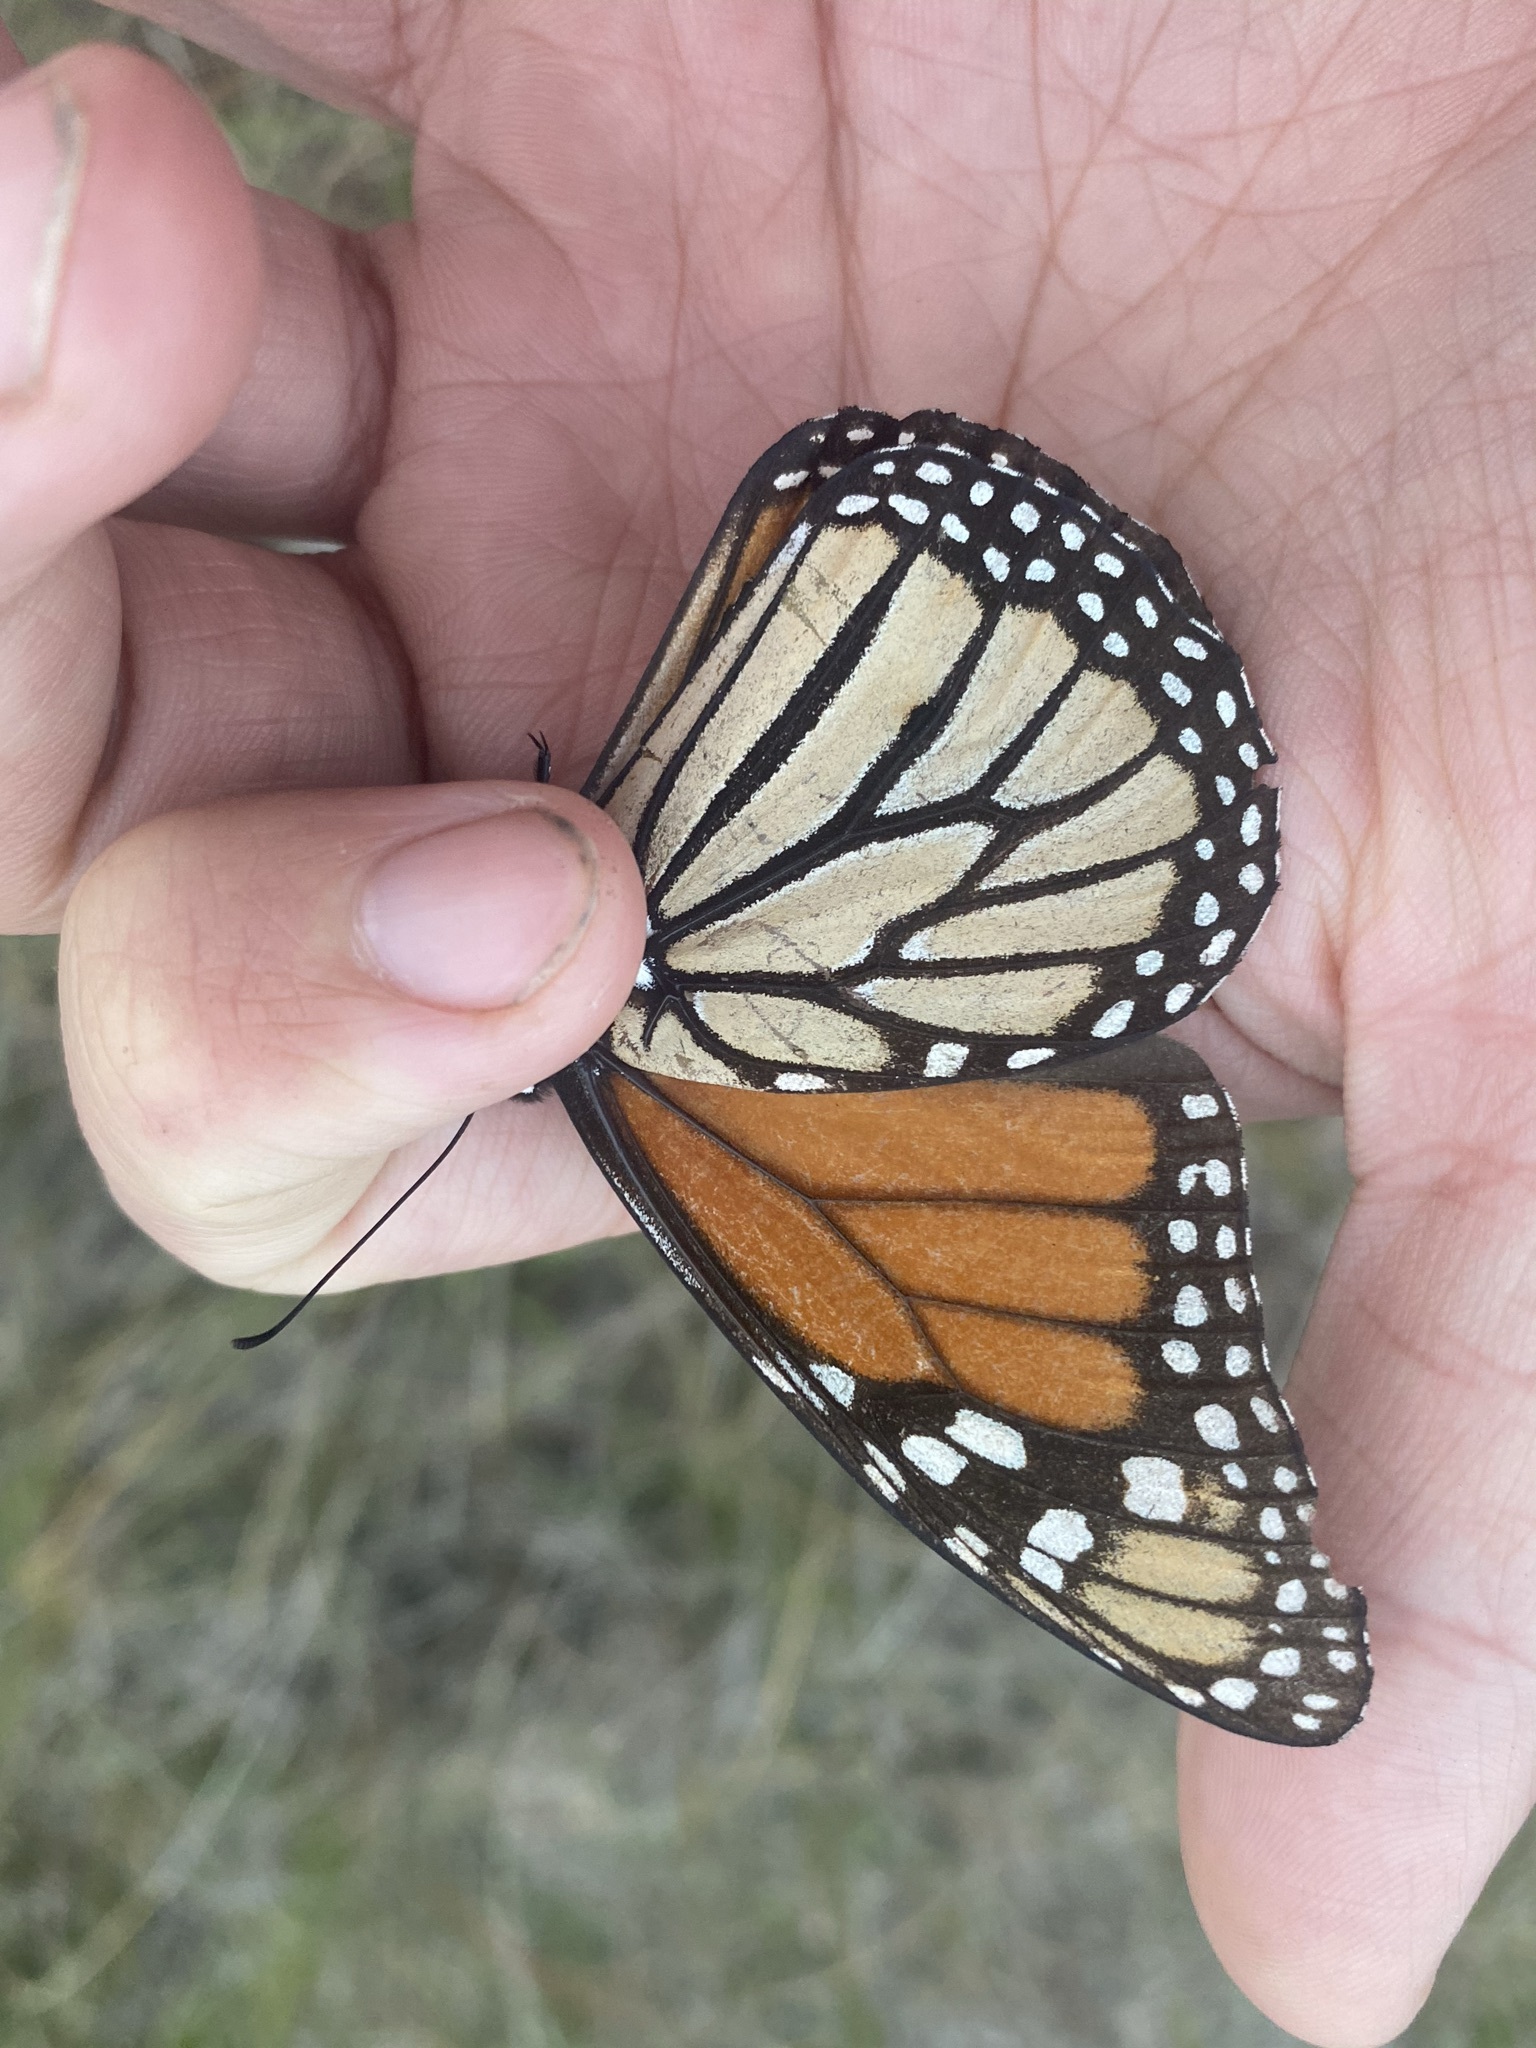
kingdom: Animalia
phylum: Arthropoda
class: Insecta
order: Lepidoptera
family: Nymphalidae
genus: Danaus
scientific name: Danaus plexippus
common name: Monarch
